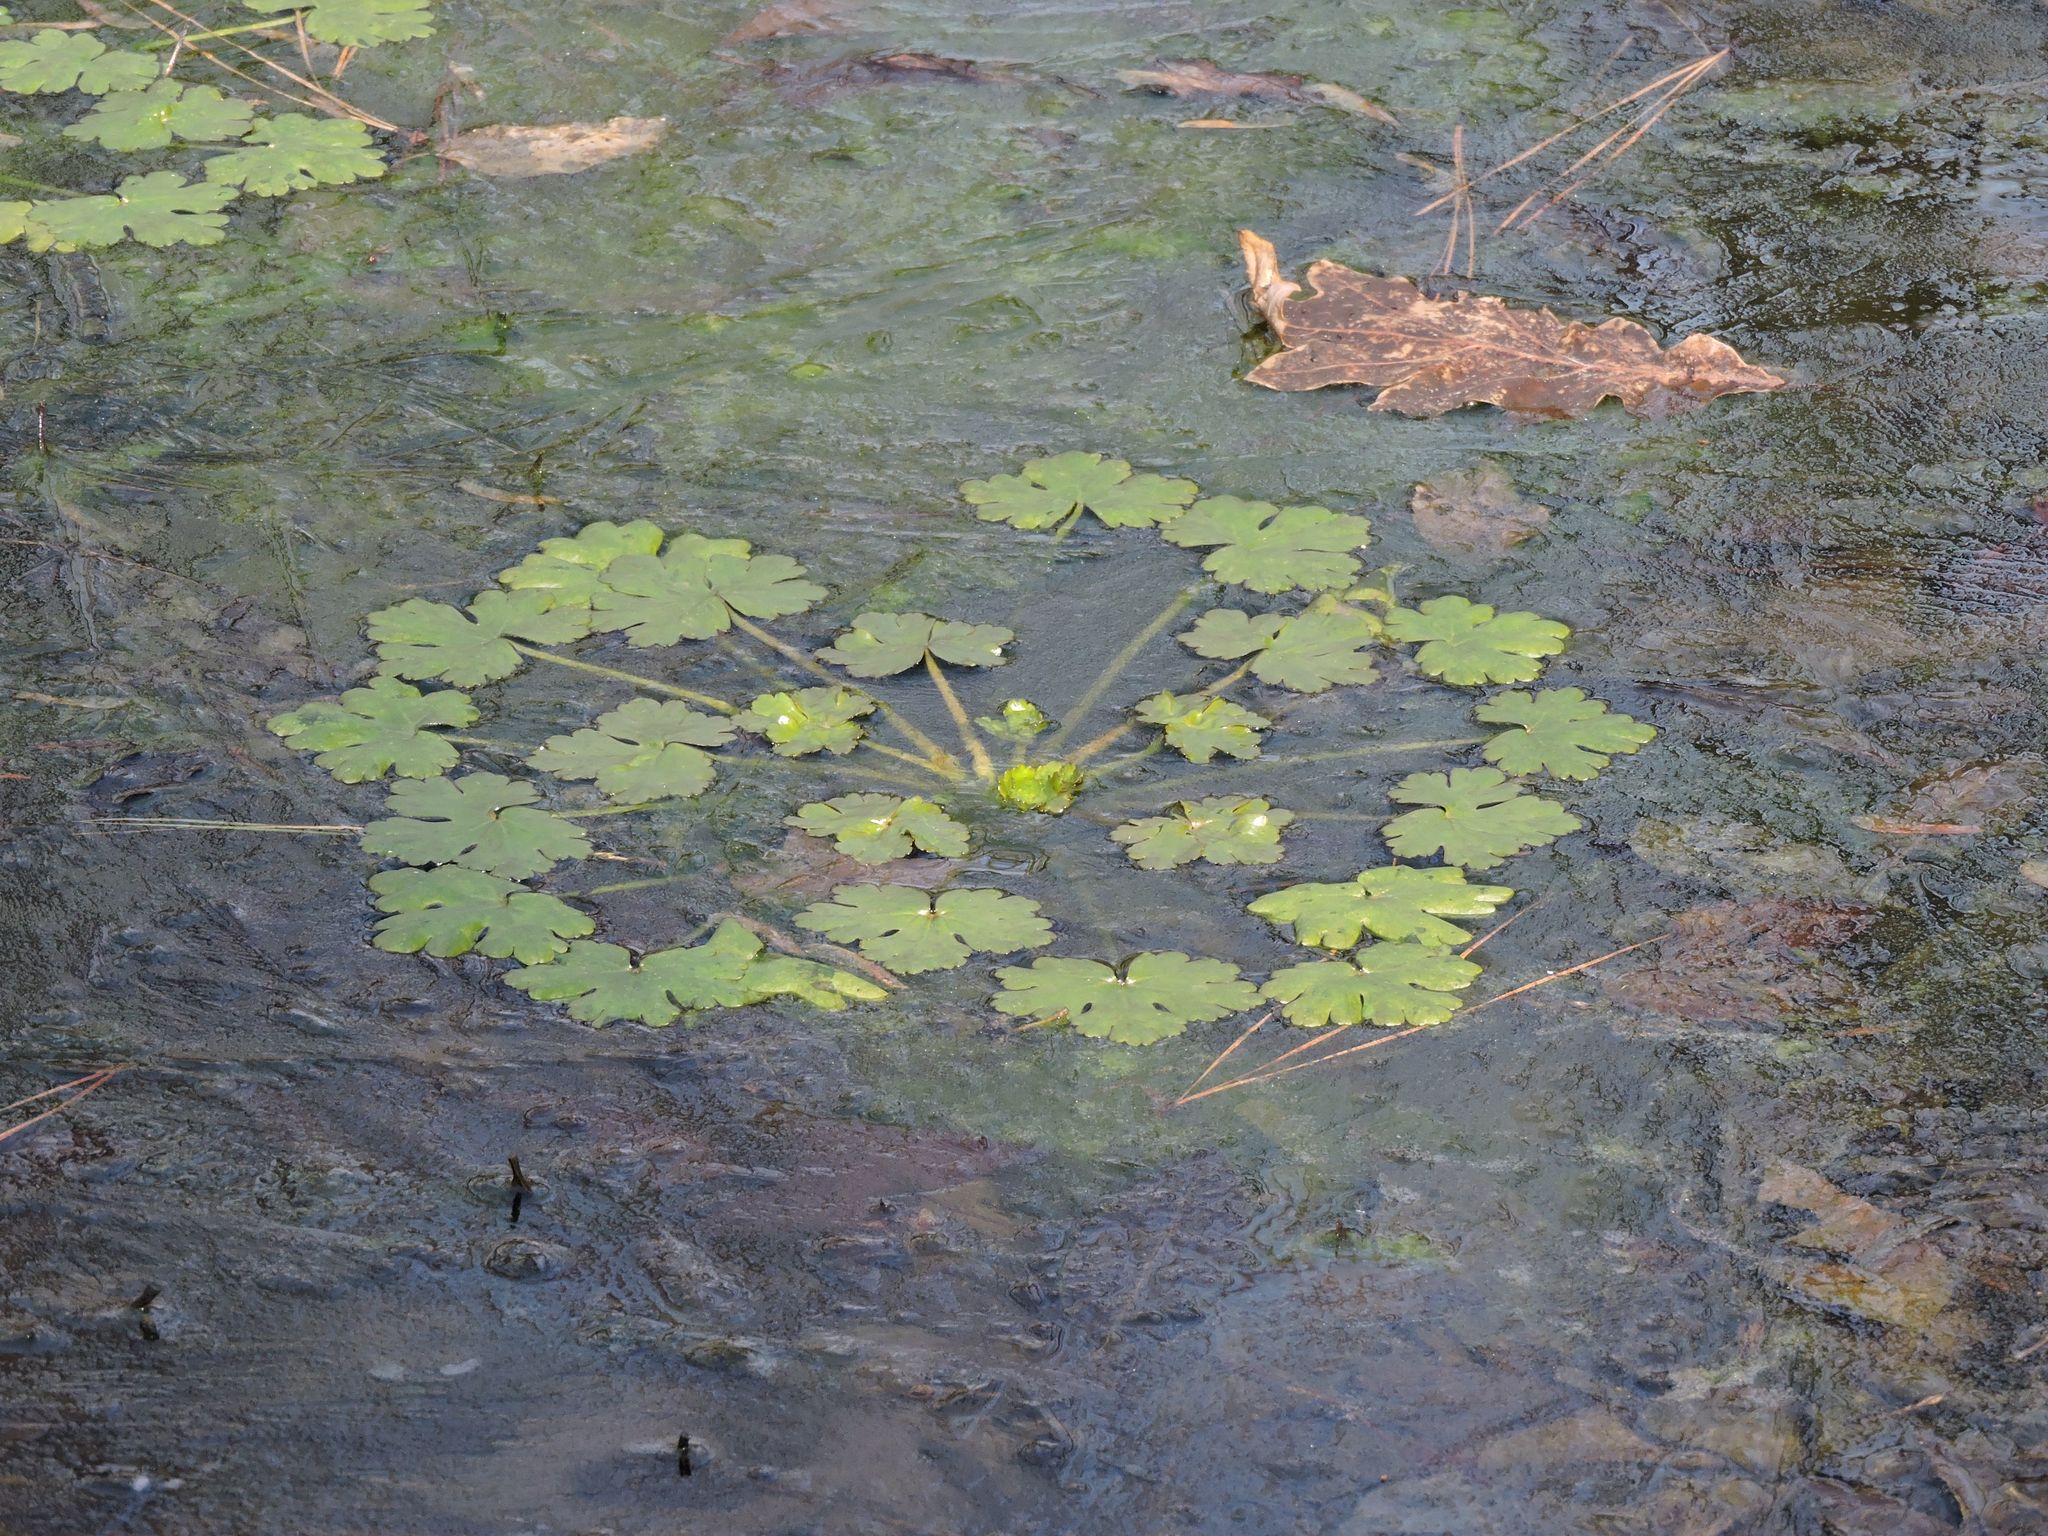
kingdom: Plantae
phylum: Tracheophyta
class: Magnoliopsida
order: Ranunculales
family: Ranunculaceae
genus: Ranunculus
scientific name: Ranunculus sceleratus
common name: Celery-leaved buttercup
